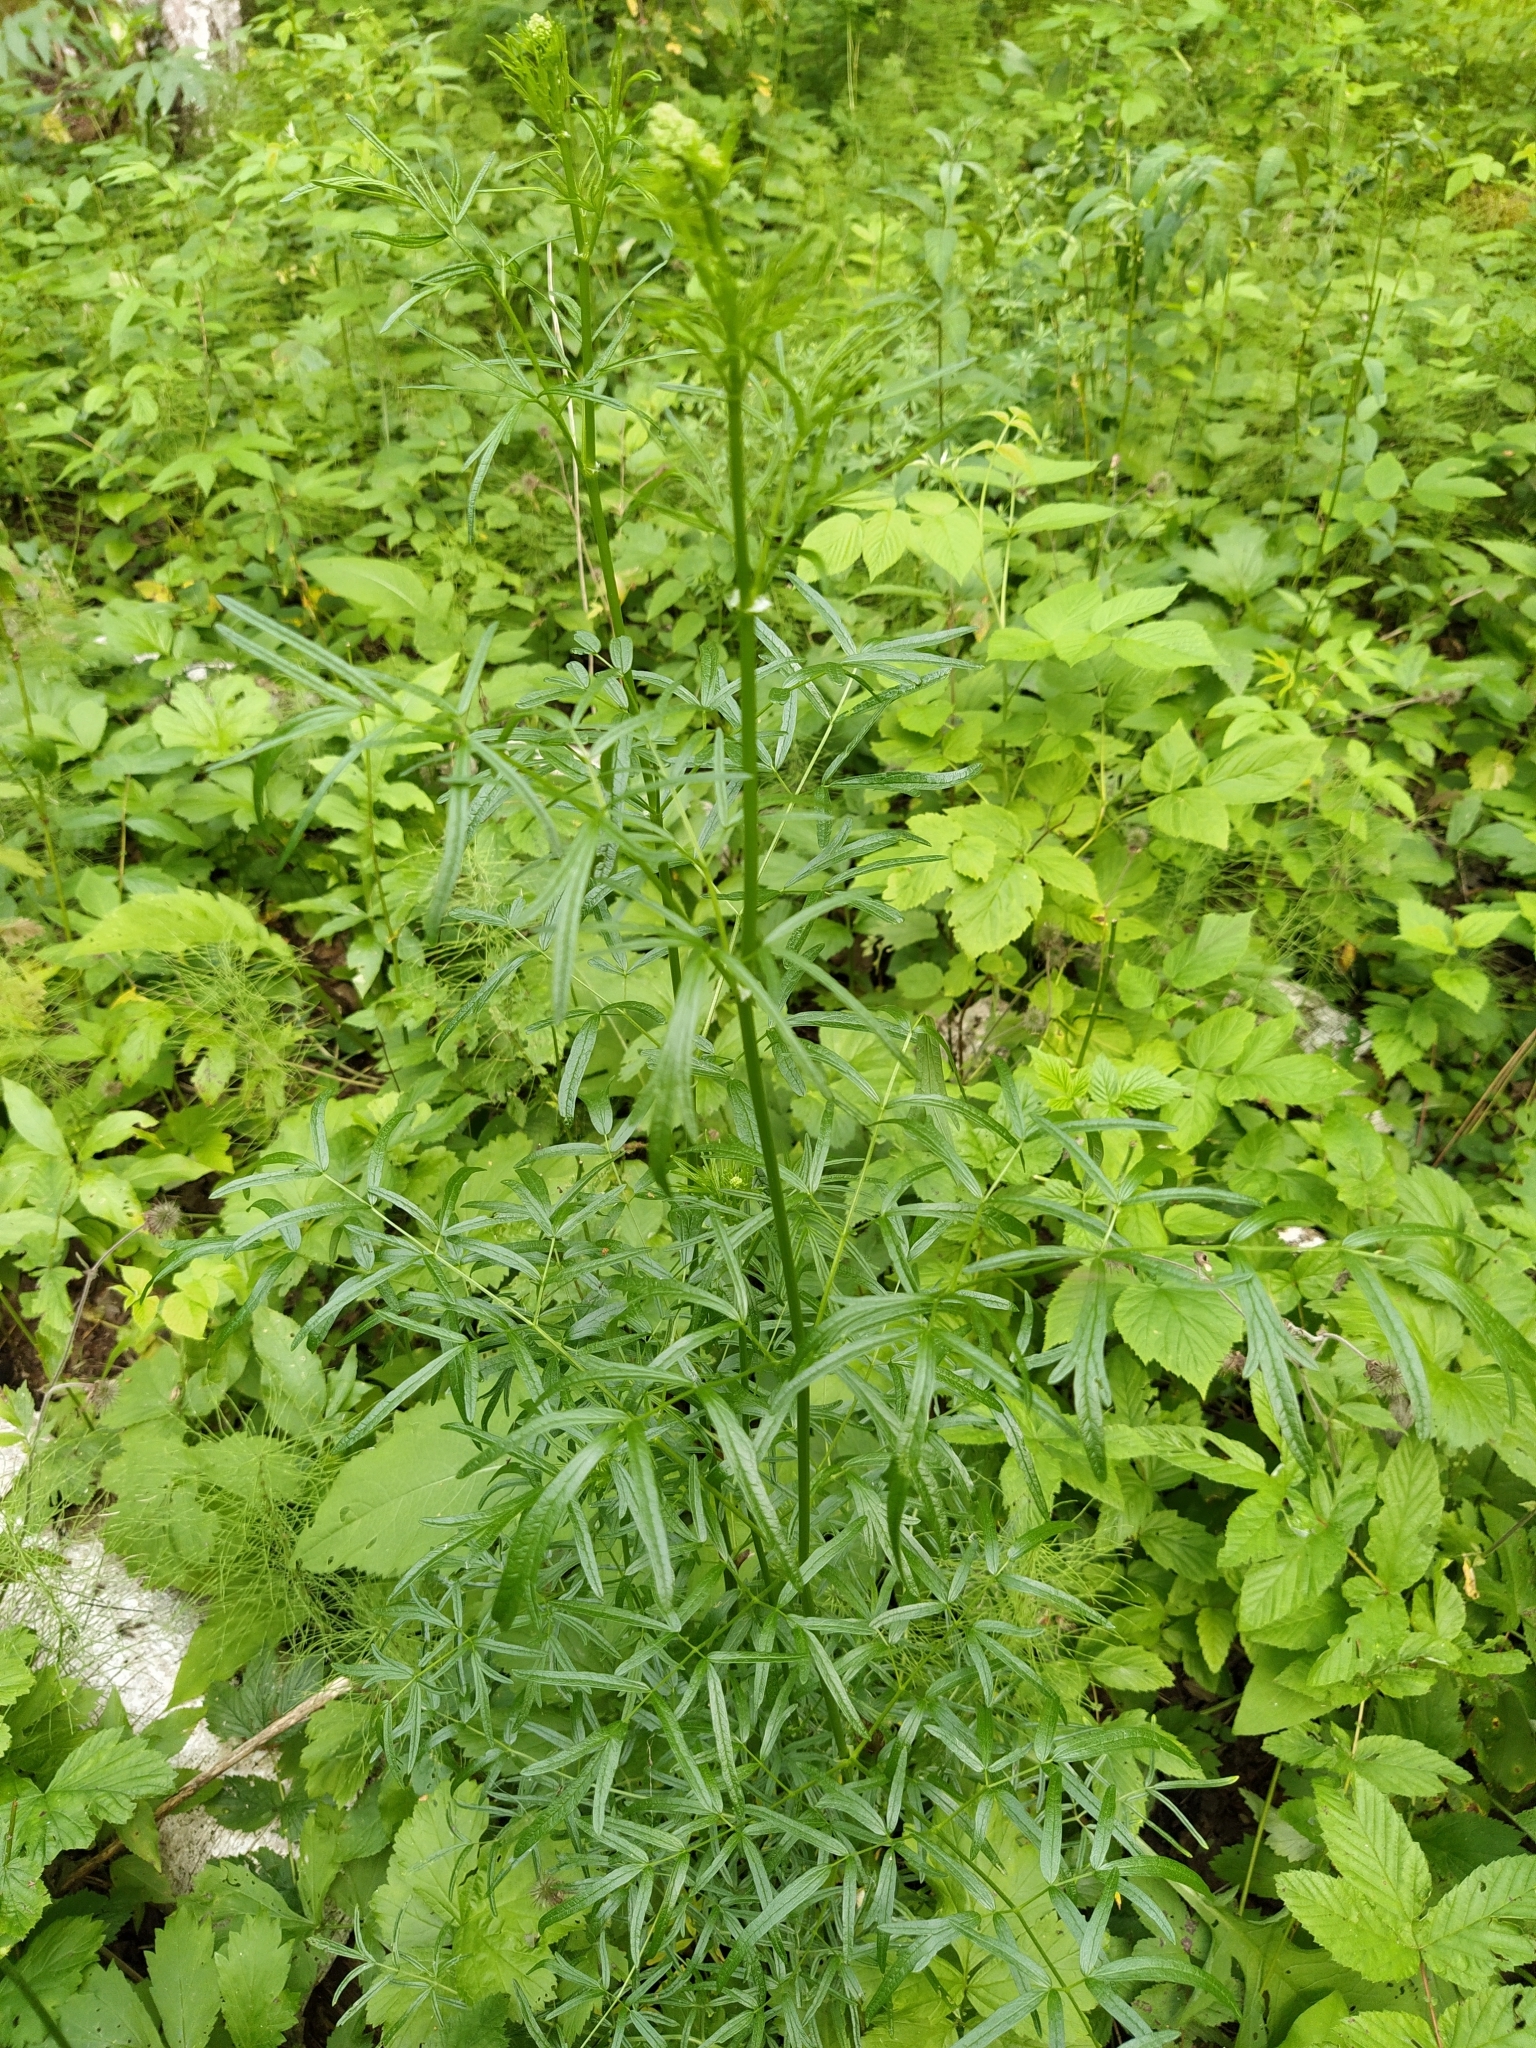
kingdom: Plantae
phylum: Tracheophyta
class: Magnoliopsida
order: Ranunculales
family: Ranunculaceae
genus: Thalictrum
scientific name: Thalictrum lucidum
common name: Shining meadow-rue
